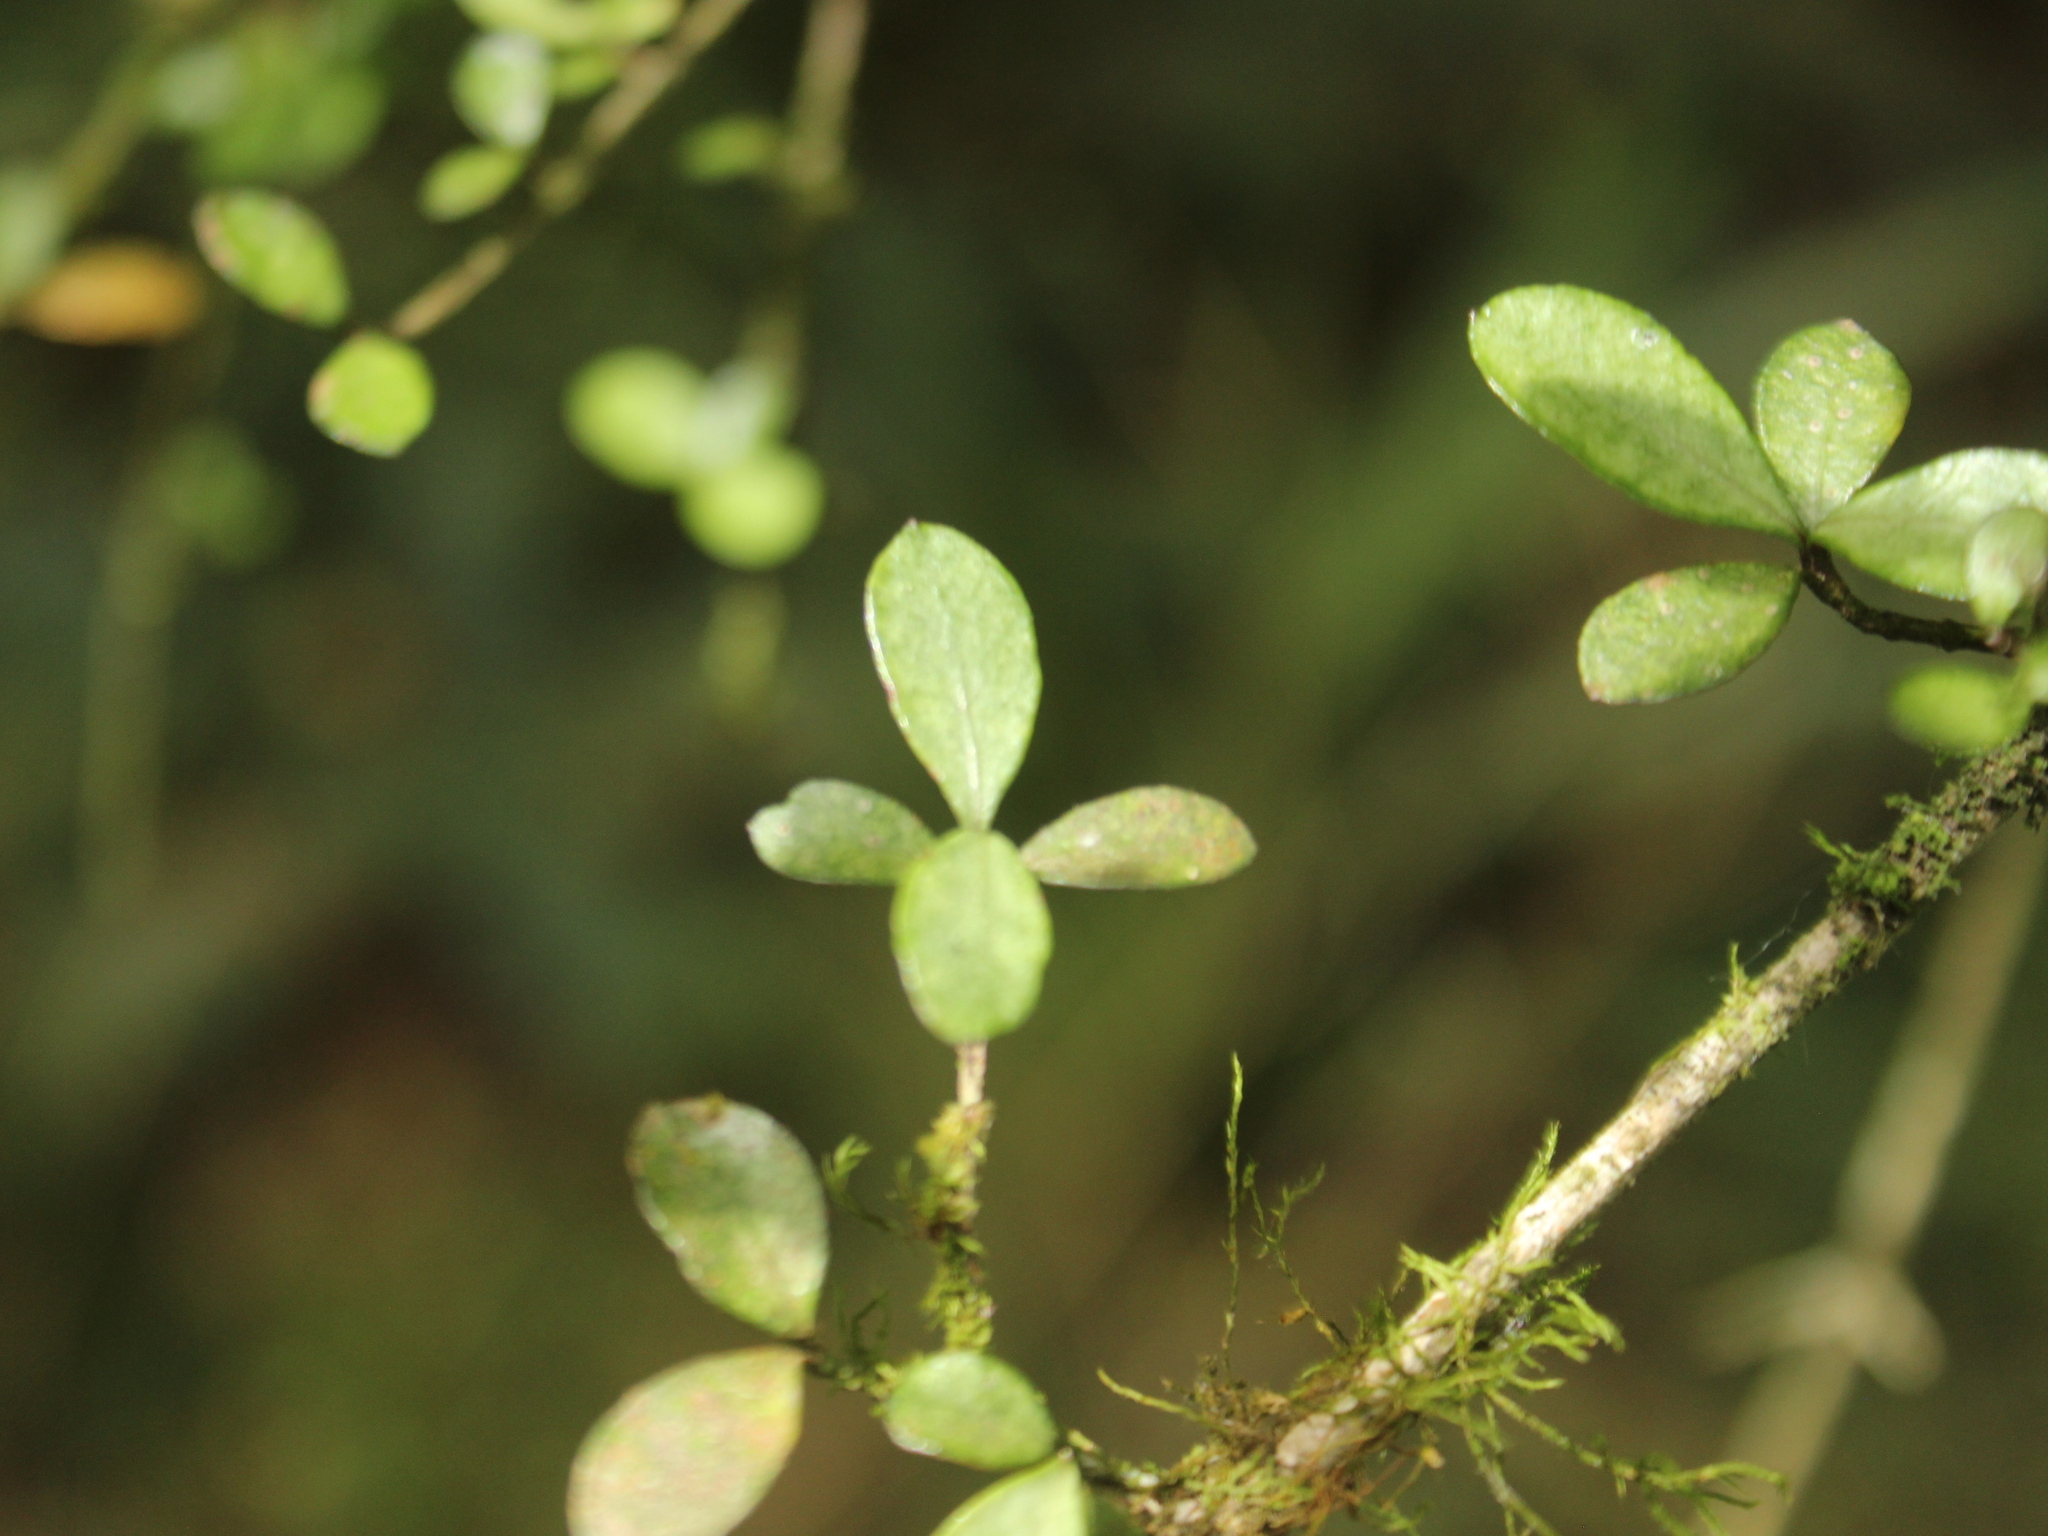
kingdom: Plantae
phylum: Tracheophyta
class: Magnoliopsida
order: Myrtales
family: Myrtaceae
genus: Neomyrtus
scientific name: Neomyrtus pedunculata
